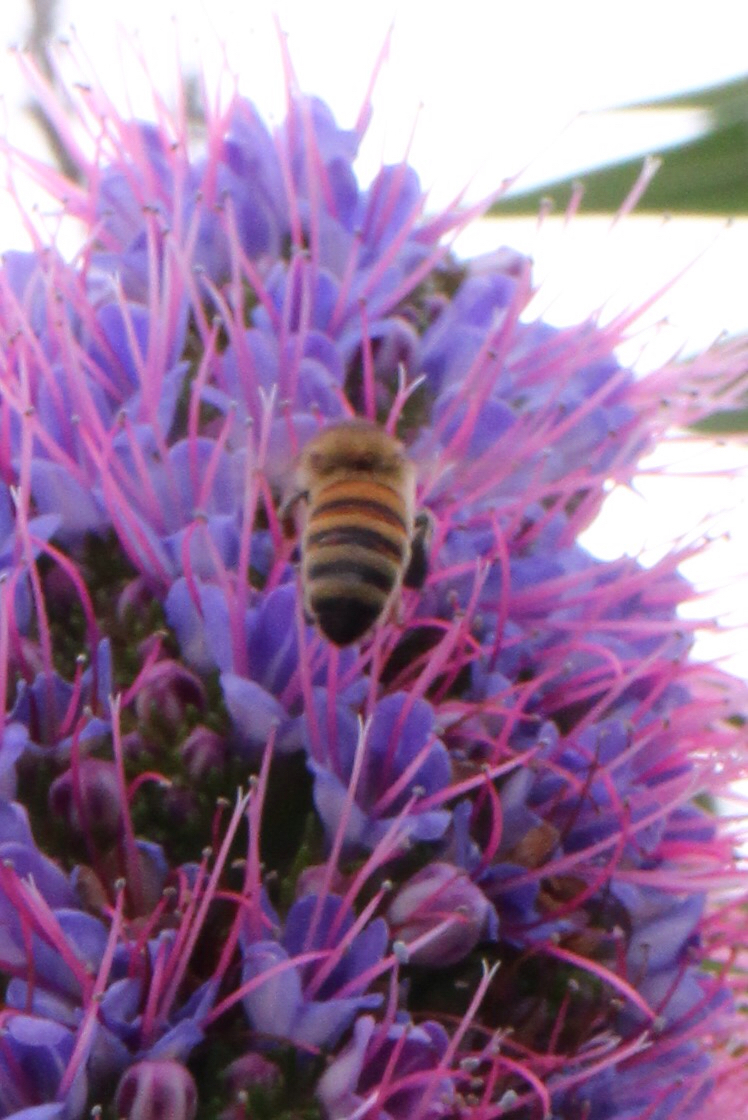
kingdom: Animalia
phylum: Arthropoda
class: Insecta
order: Hymenoptera
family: Apidae
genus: Apis
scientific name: Apis mellifera
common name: Honey bee
